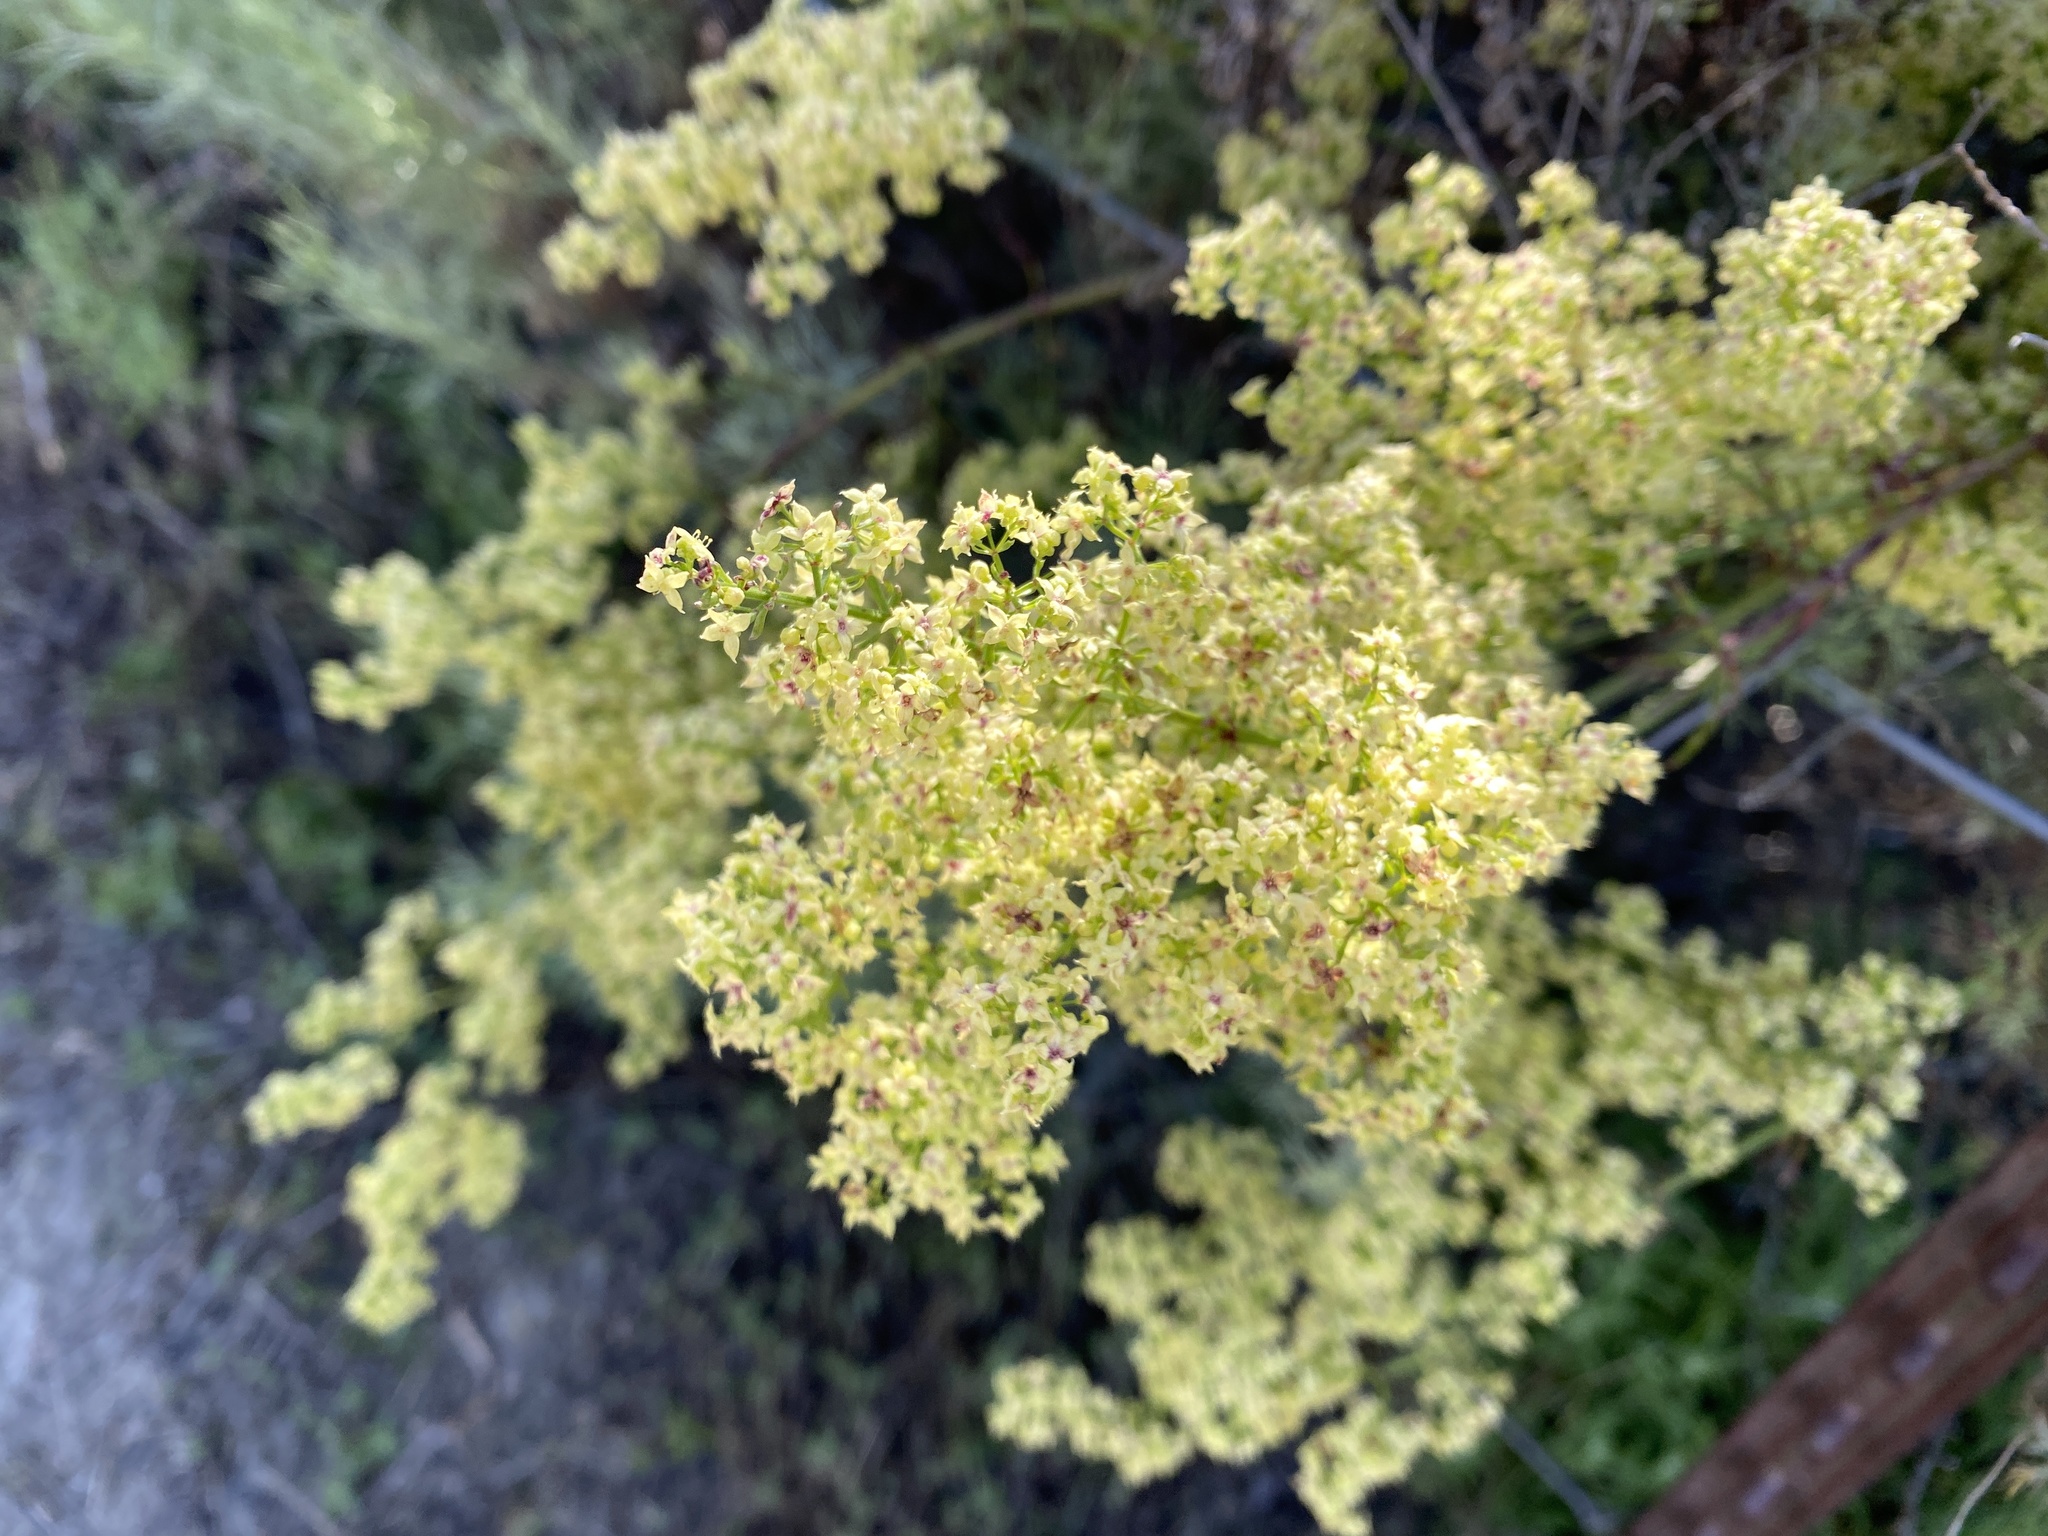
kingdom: Plantae
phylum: Tracheophyta
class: Magnoliopsida
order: Gentianales
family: Rubiaceae
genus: Galium
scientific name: Galium angustifolium
